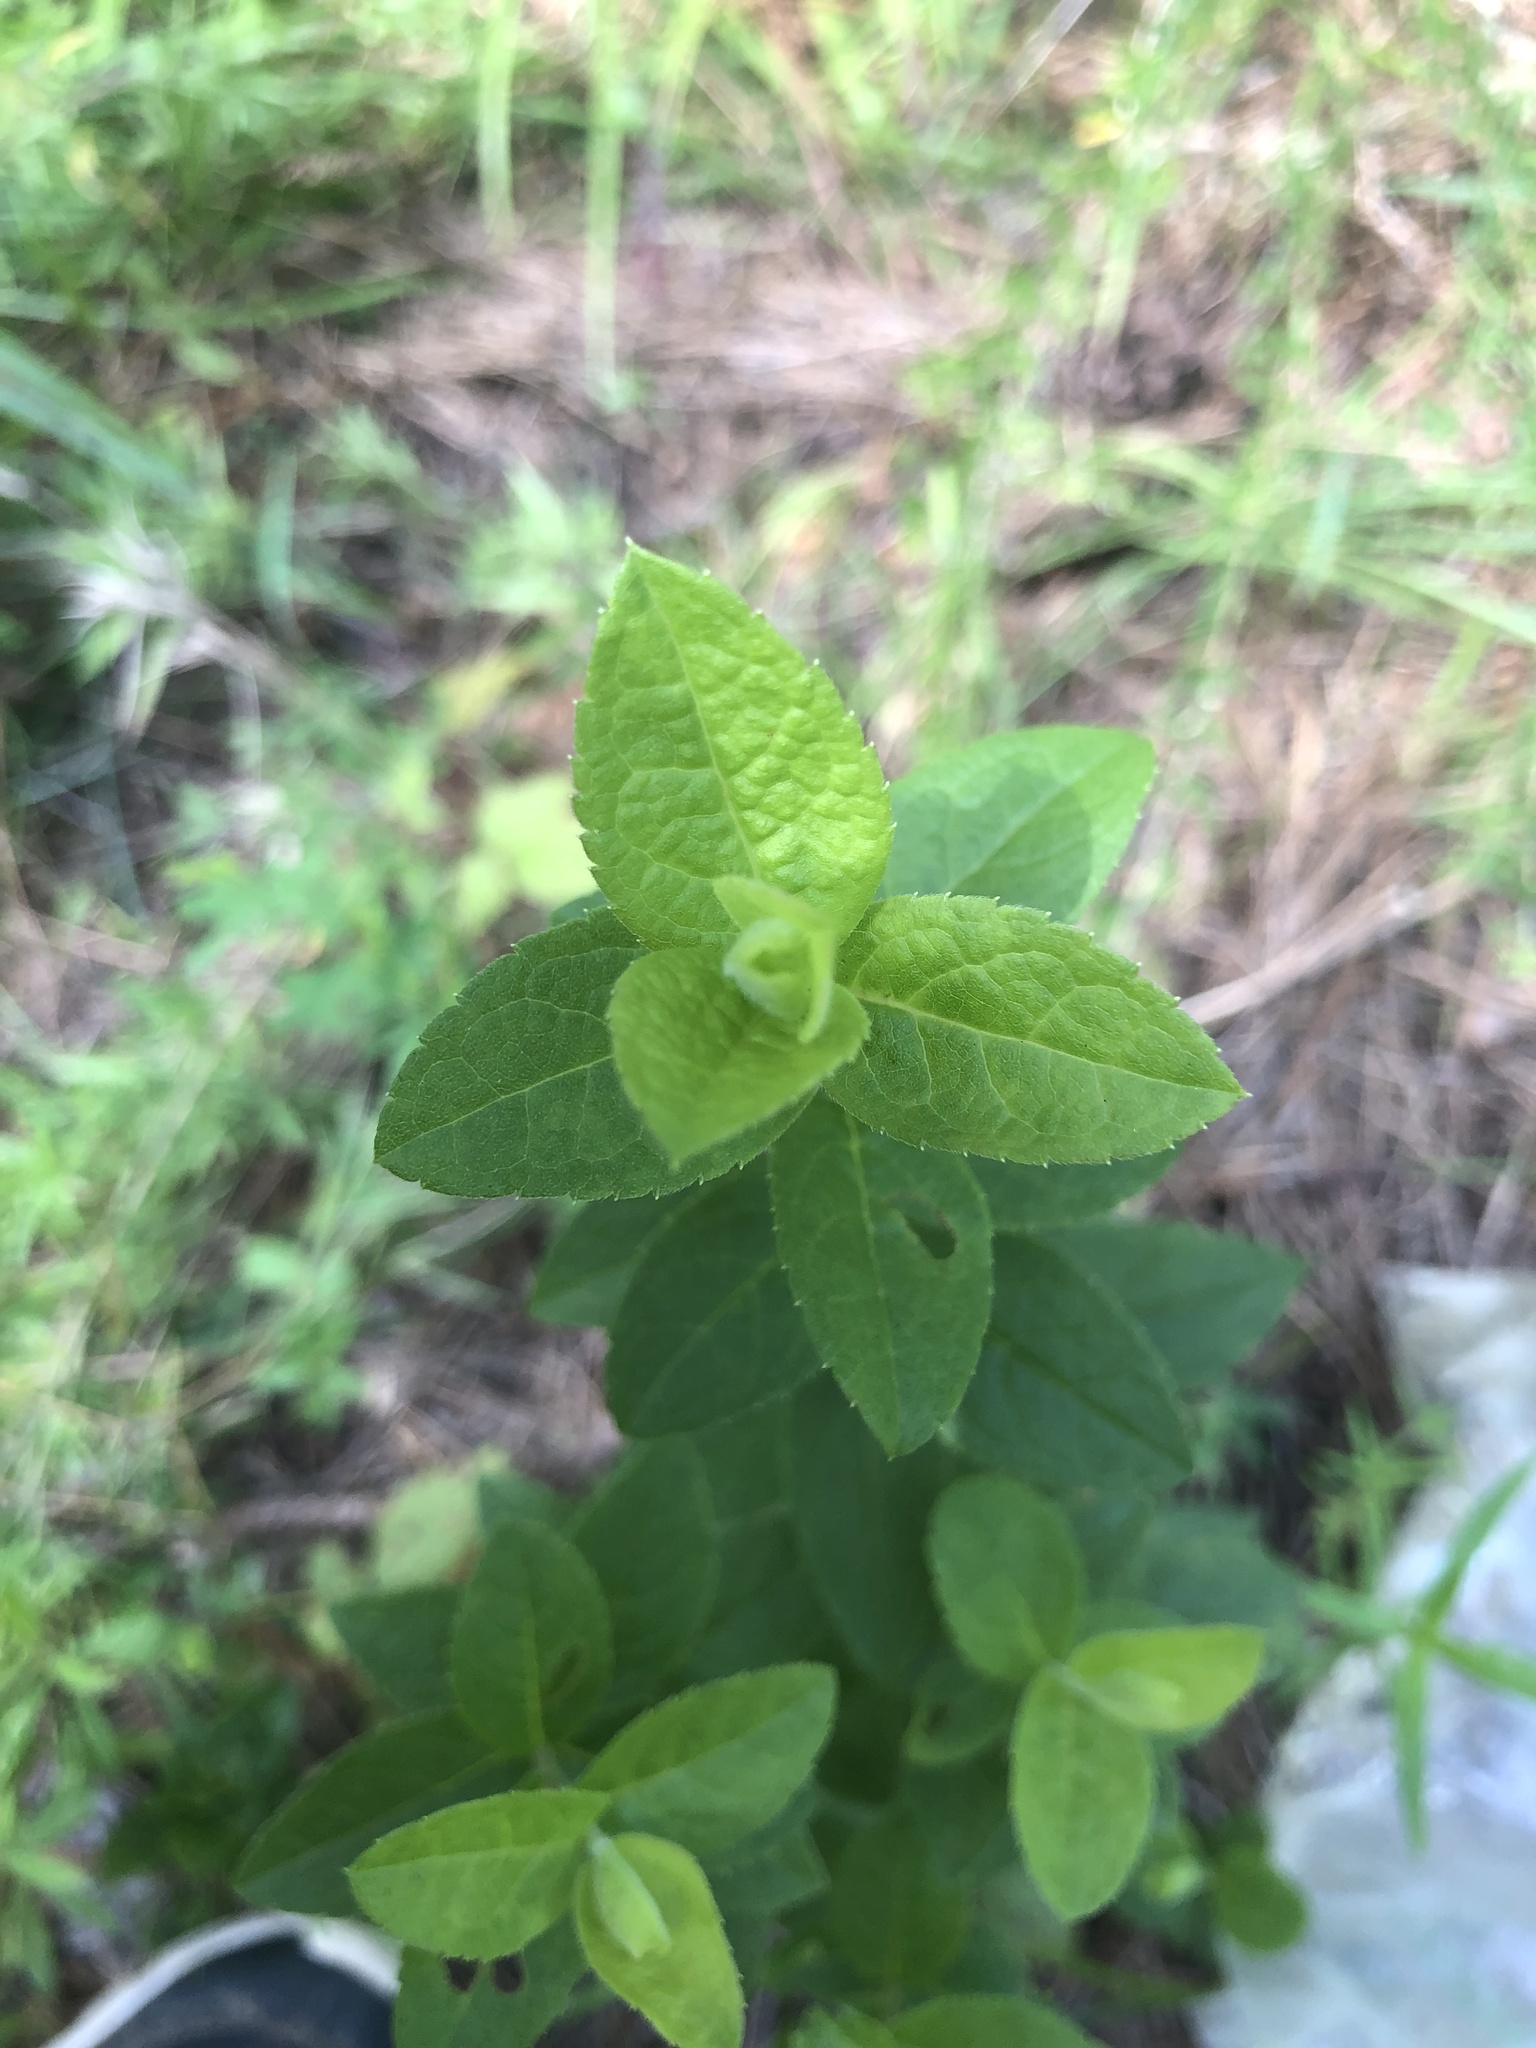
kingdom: Plantae
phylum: Tracheophyta
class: Magnoliopsida
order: Asterales
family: Asteraceae
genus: Solidago
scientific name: Solidago rugosa
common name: Rough-stemmed goldenrod
